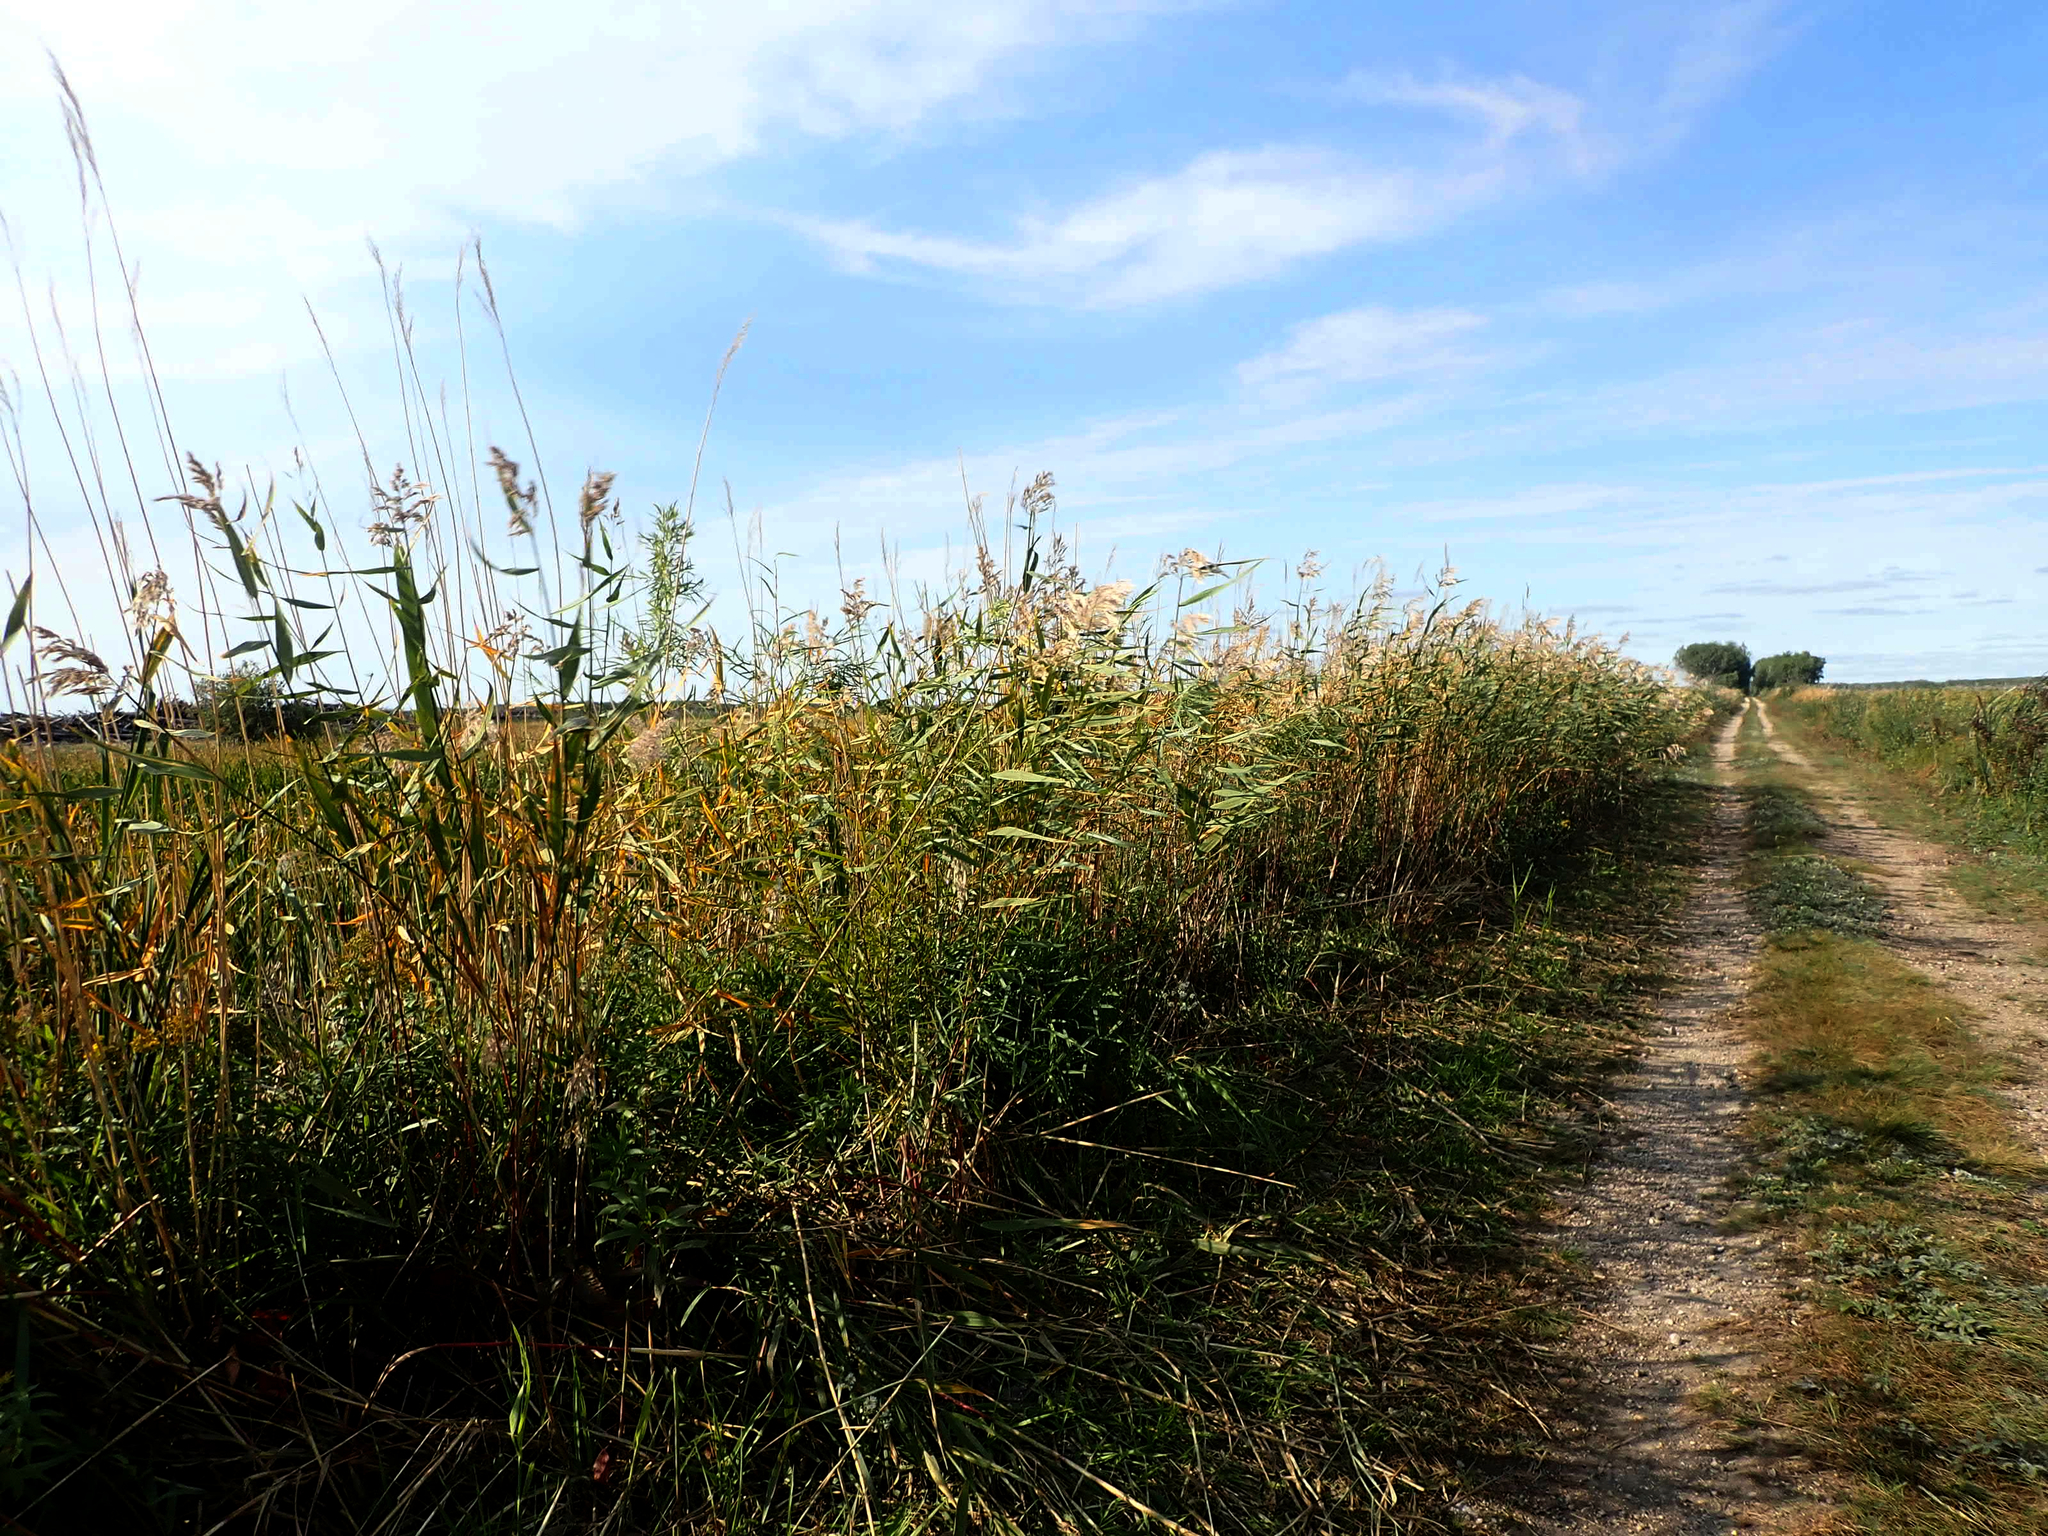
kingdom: Plantae
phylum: Tracheophyta
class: Liliopsida
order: Poales
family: Poaceae
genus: Phragmites
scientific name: Phragmites australis
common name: Common reed
